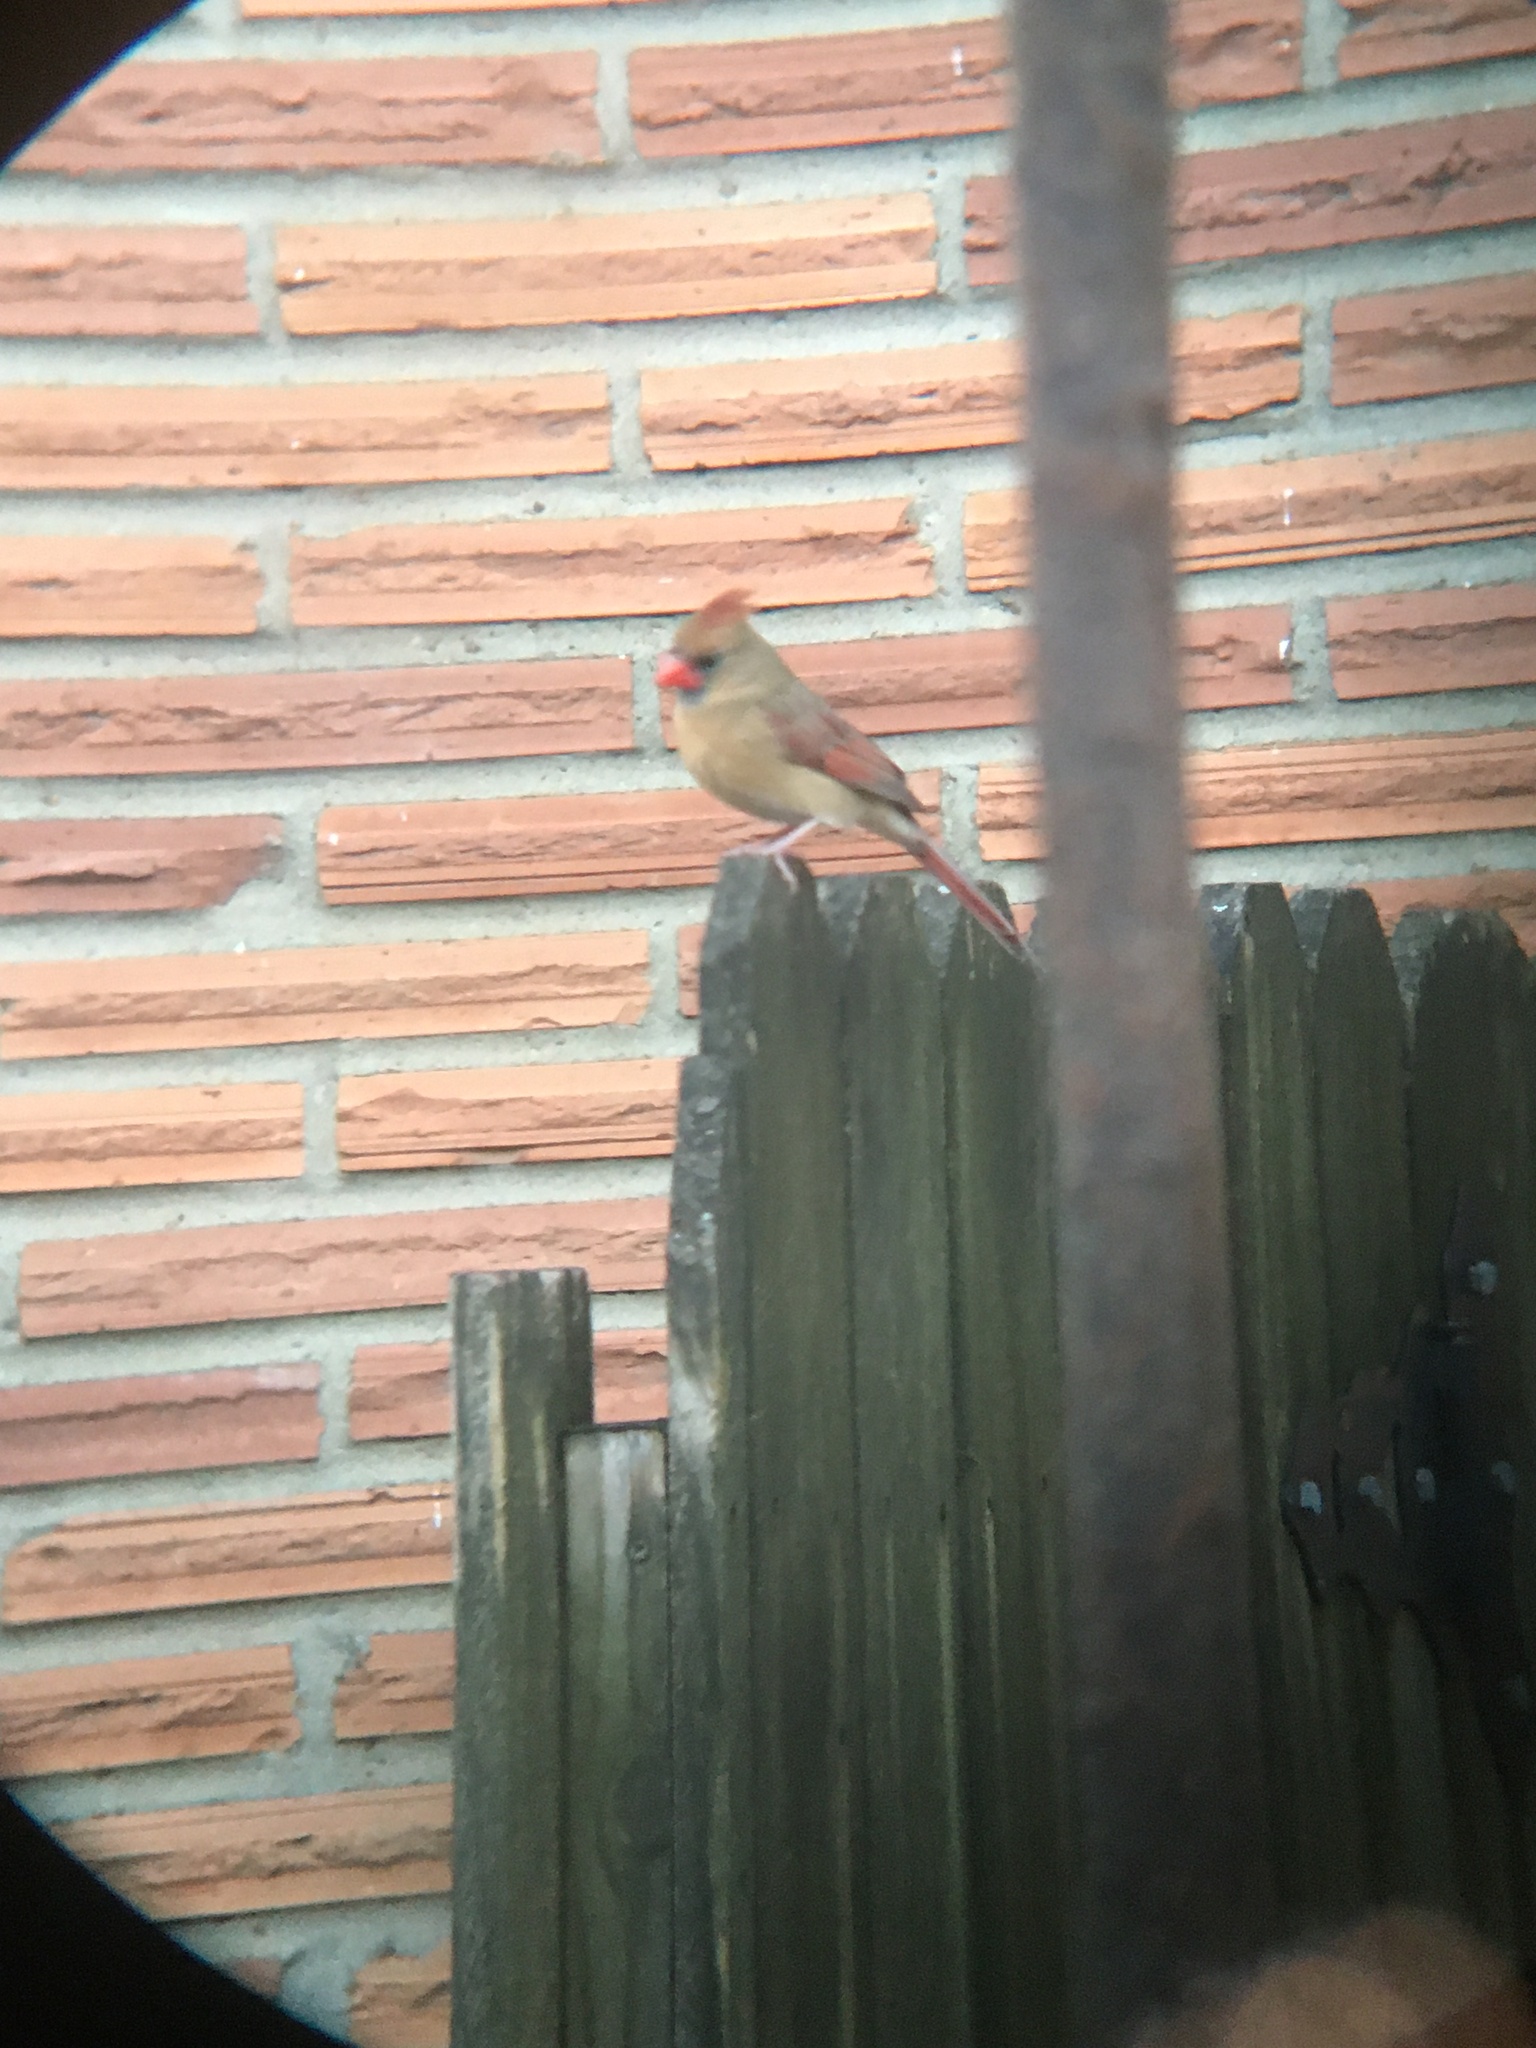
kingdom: Animalia
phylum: Chordata
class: Aves
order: Passeriformes
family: Cardinalidae
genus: Cardinalis
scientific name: Cardinalis cardinalis
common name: Northern cardinal
